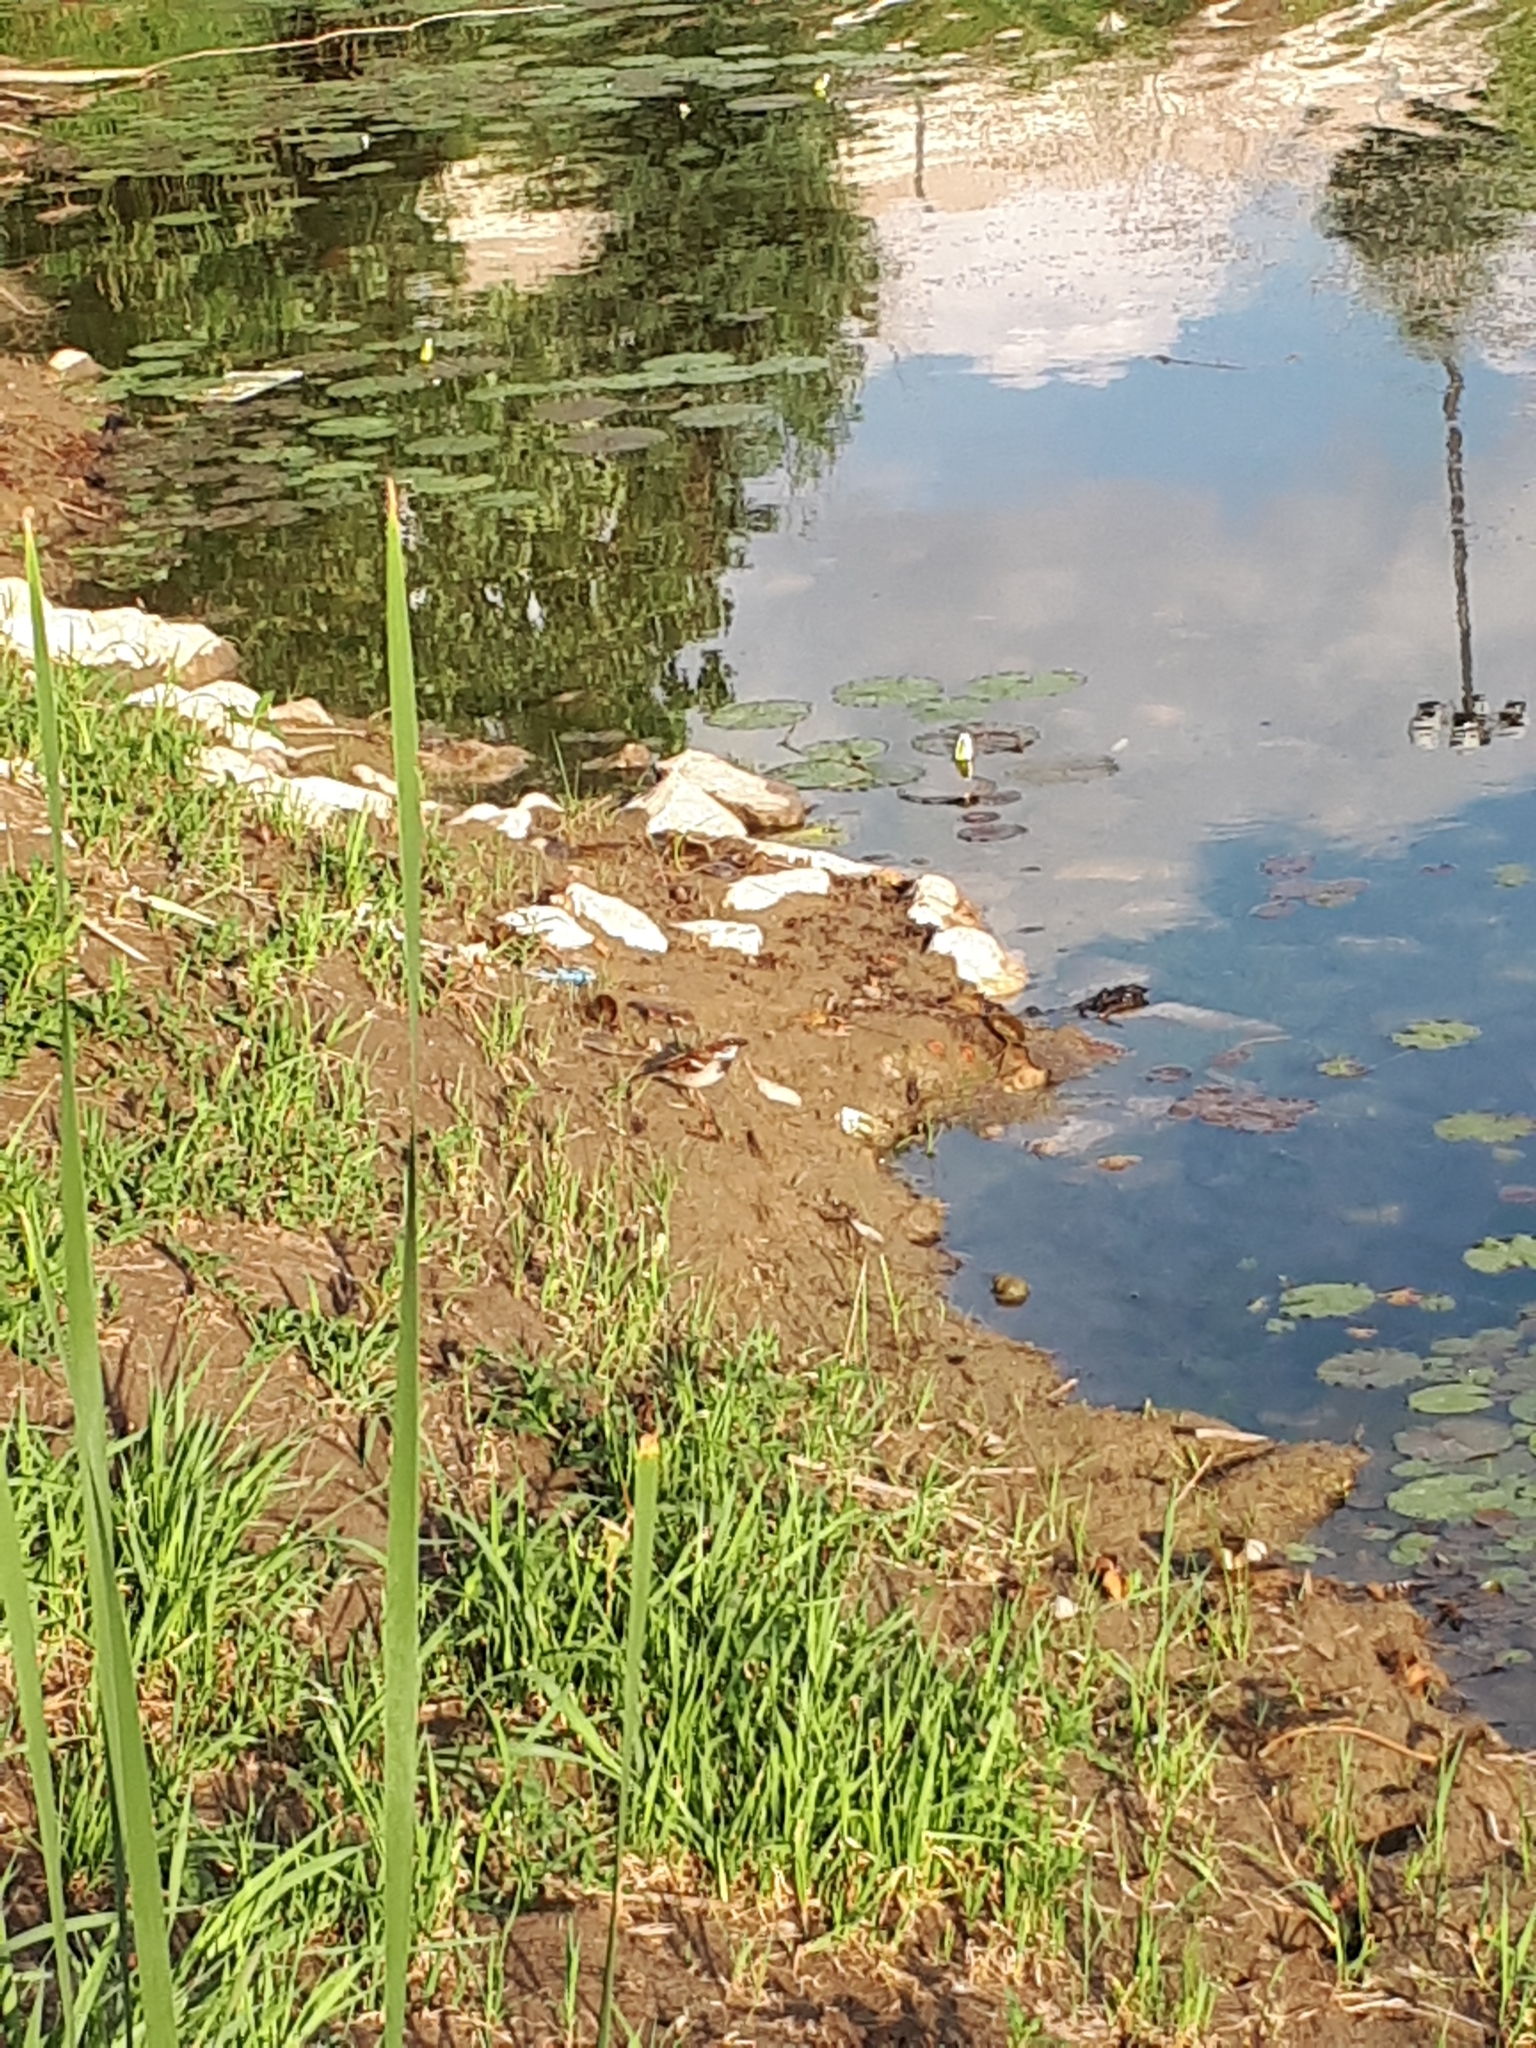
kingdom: Animalia
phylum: Chordata
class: Aves
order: Passeriformes
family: Passeridae
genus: Passer
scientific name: Passer domesticus
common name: House sparrow
